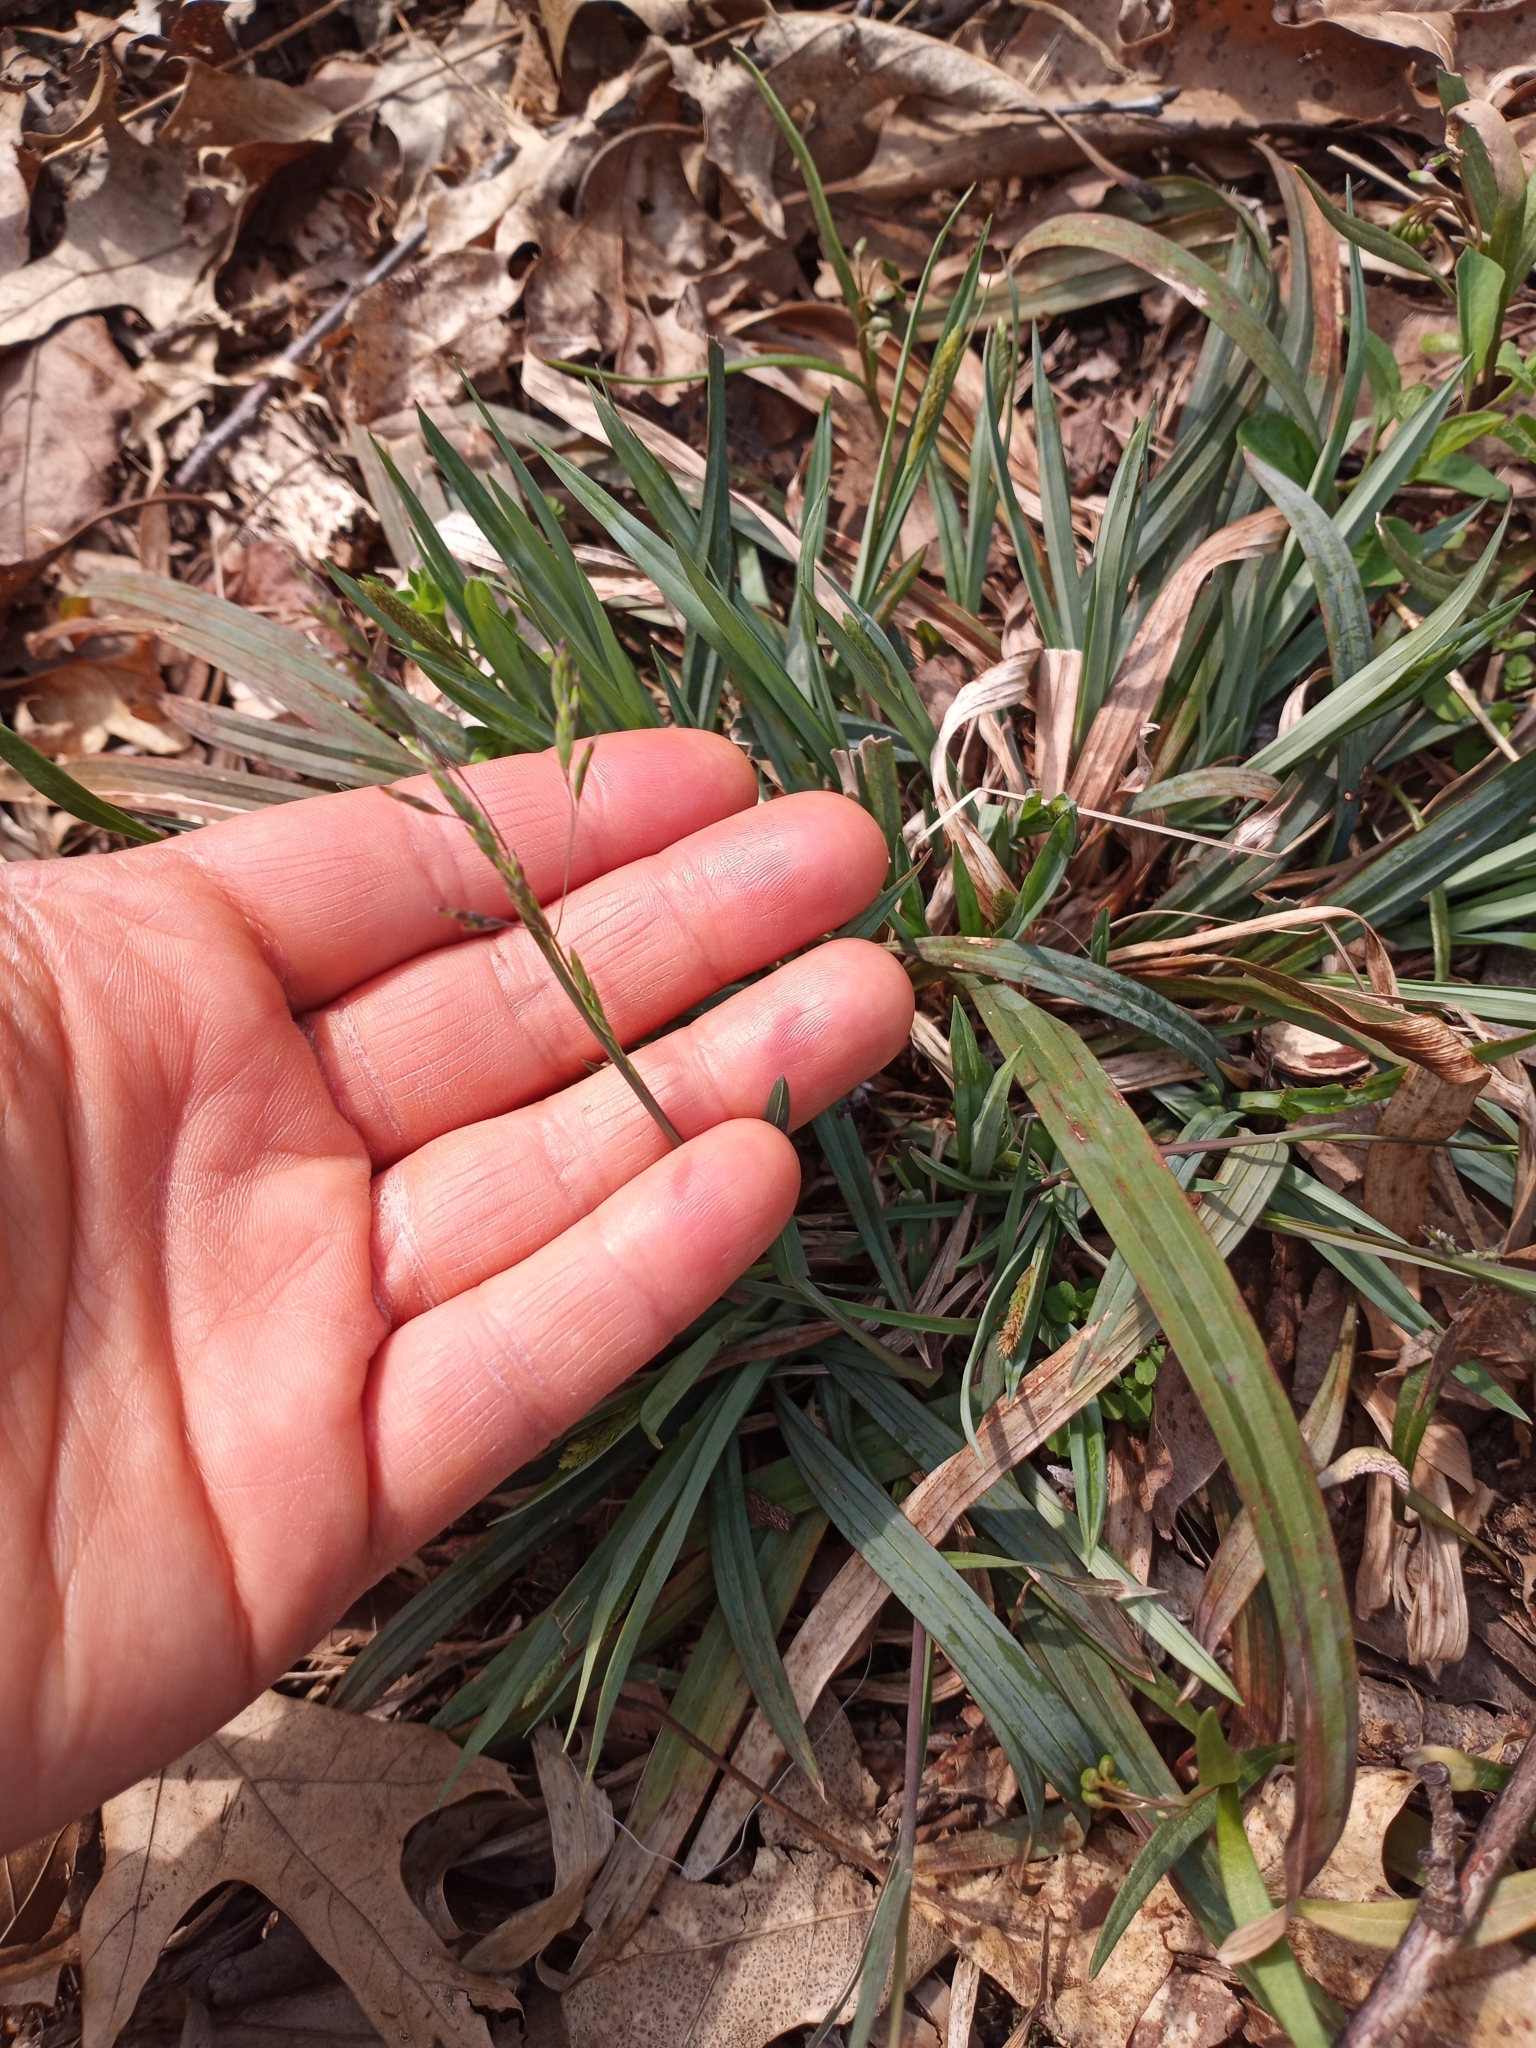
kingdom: Plantae
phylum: Tracheophyta
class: Liliopsida
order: Poales
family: Poaceae
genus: Poa
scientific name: Poa cuspidata
